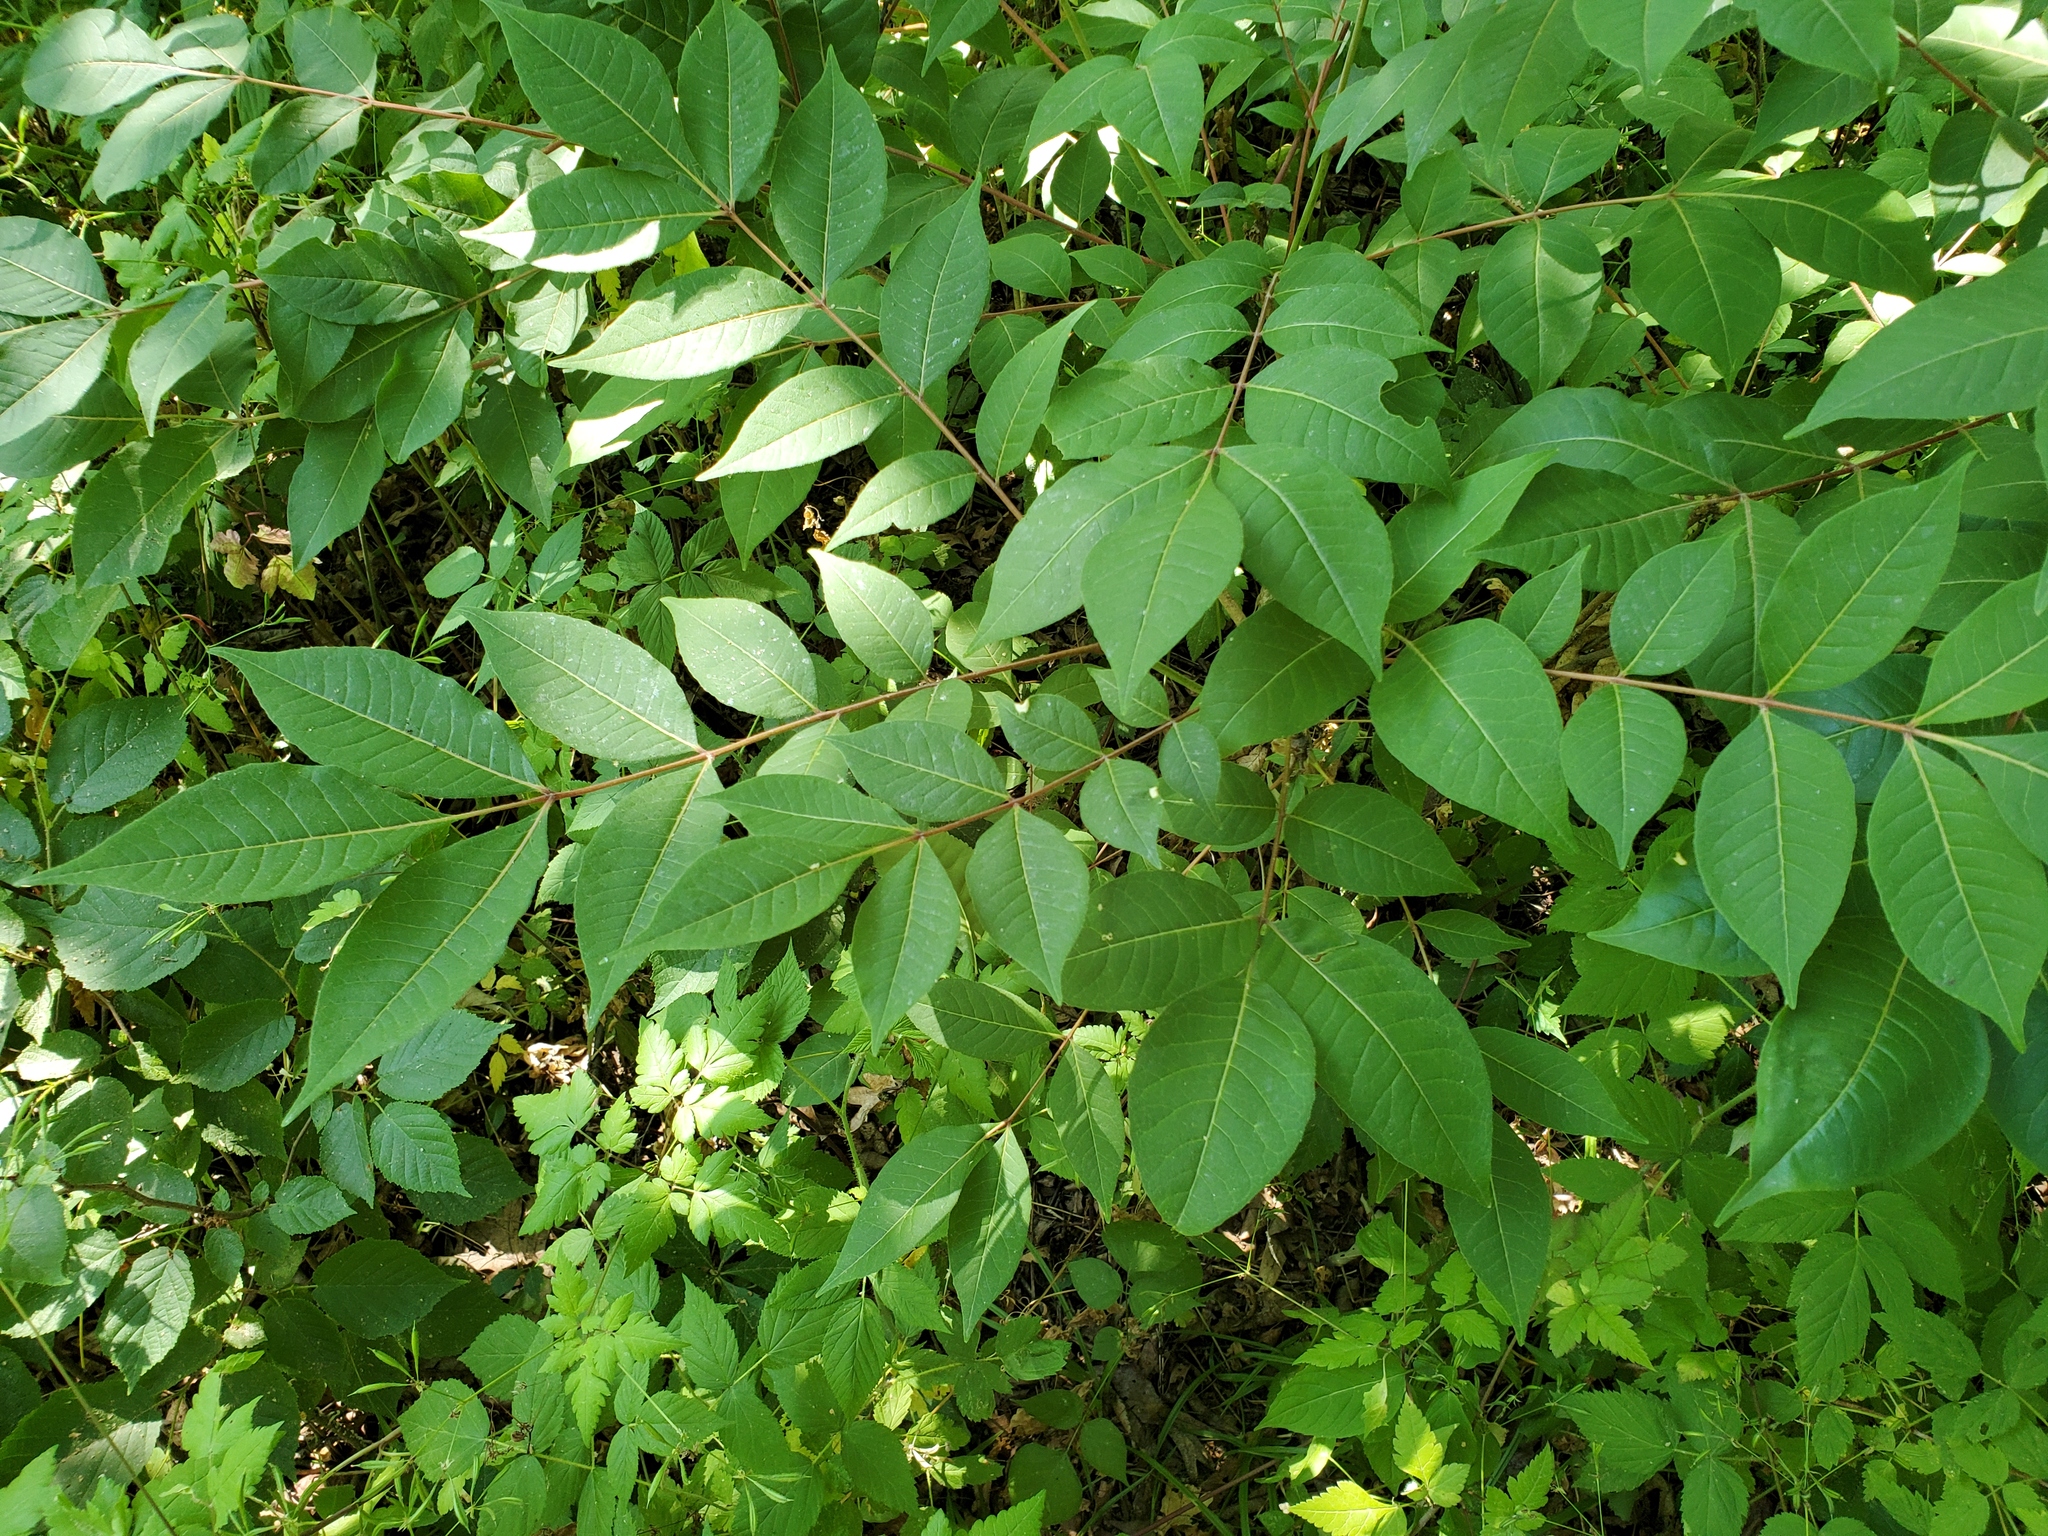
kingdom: Plantae
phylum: Tracheophyta
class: Magnoliopsida
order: Sapindales
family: Rutaceae
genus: Phellodendron
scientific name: Phellodendron amurense
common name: Amur corktree
